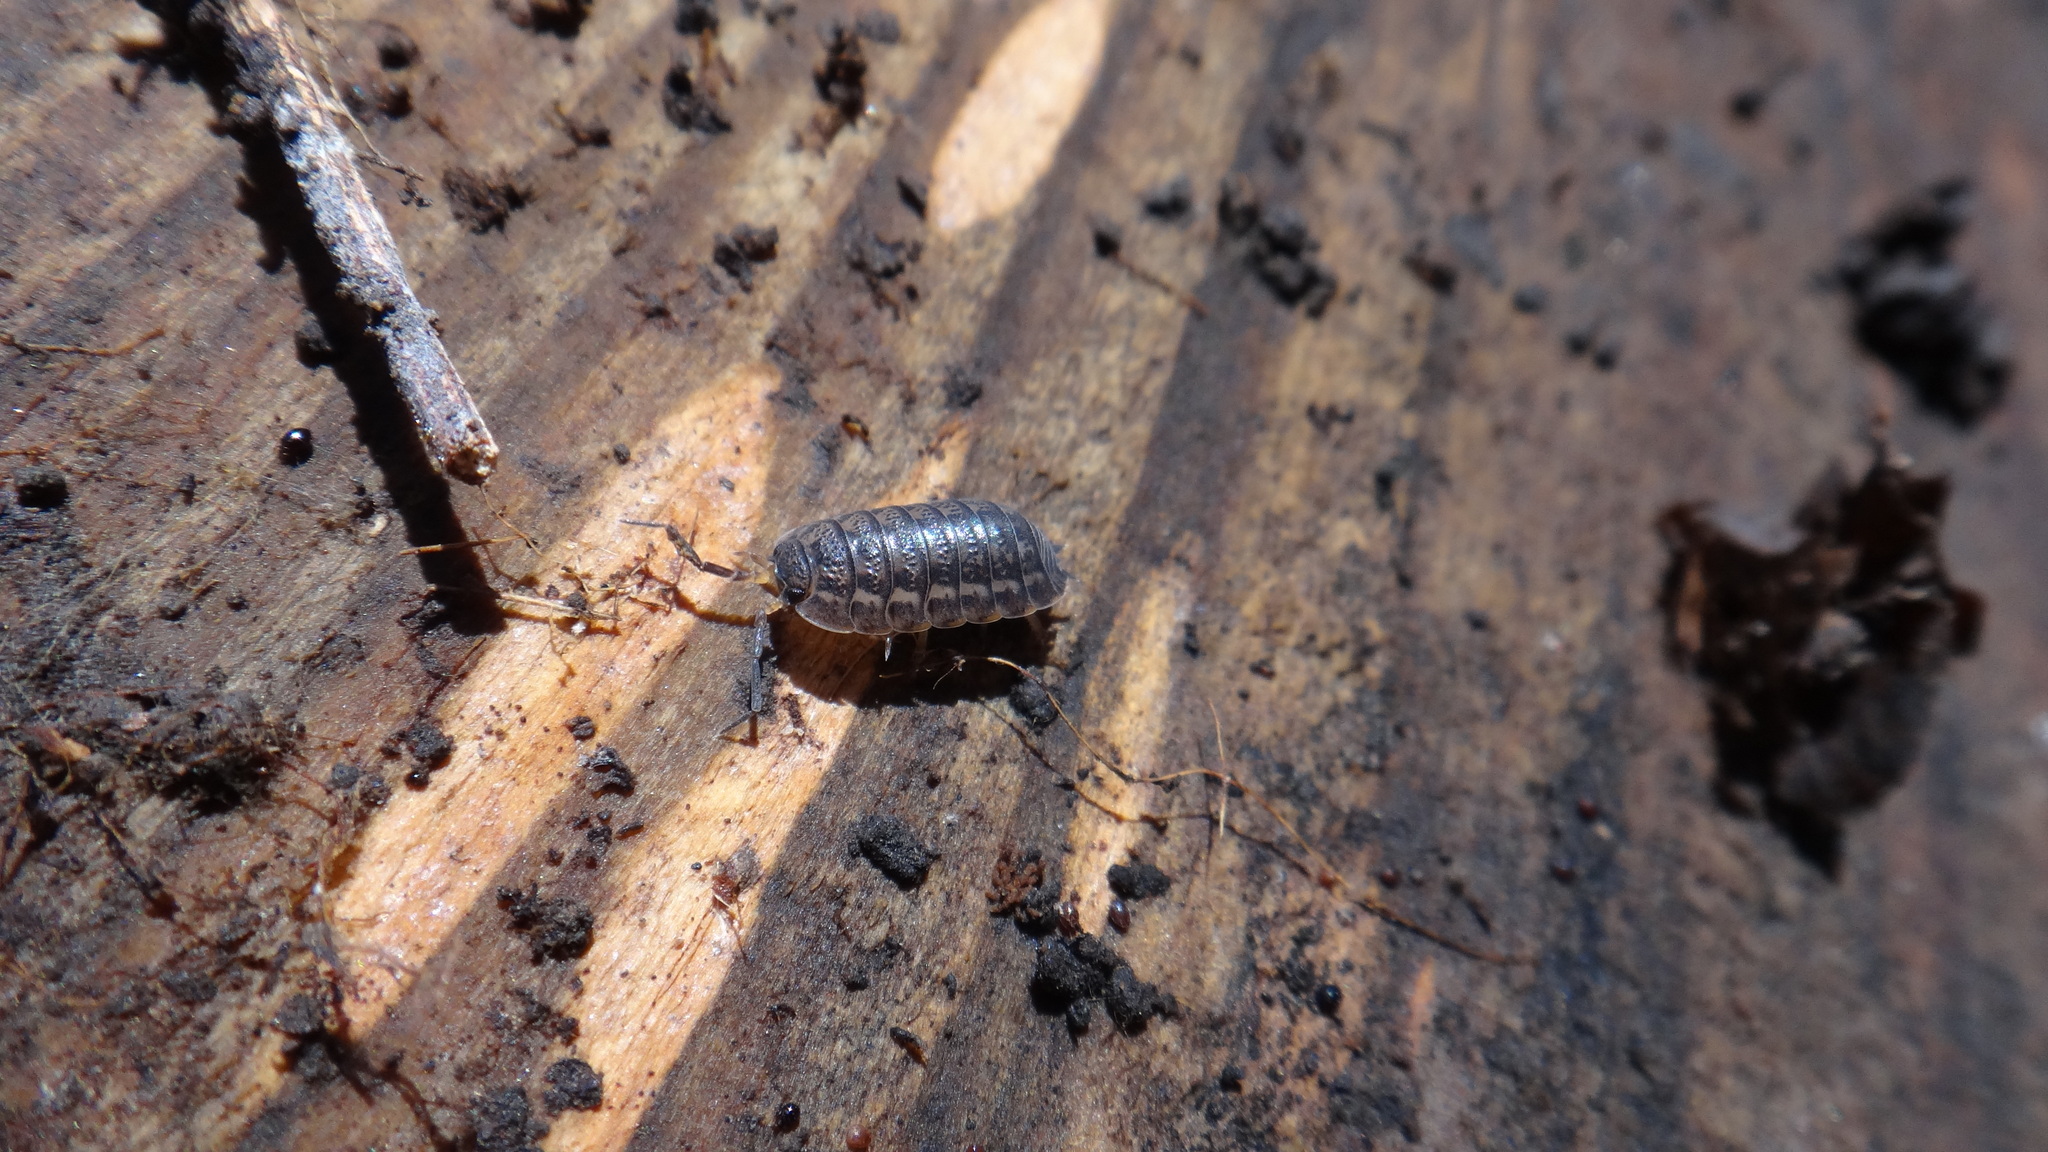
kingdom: Animalia
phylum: Arthropoda
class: Malacostraca
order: Isopoda
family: Trachelipodidae
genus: Trachelipus
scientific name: Trachelipus rathkii
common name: Isopod
